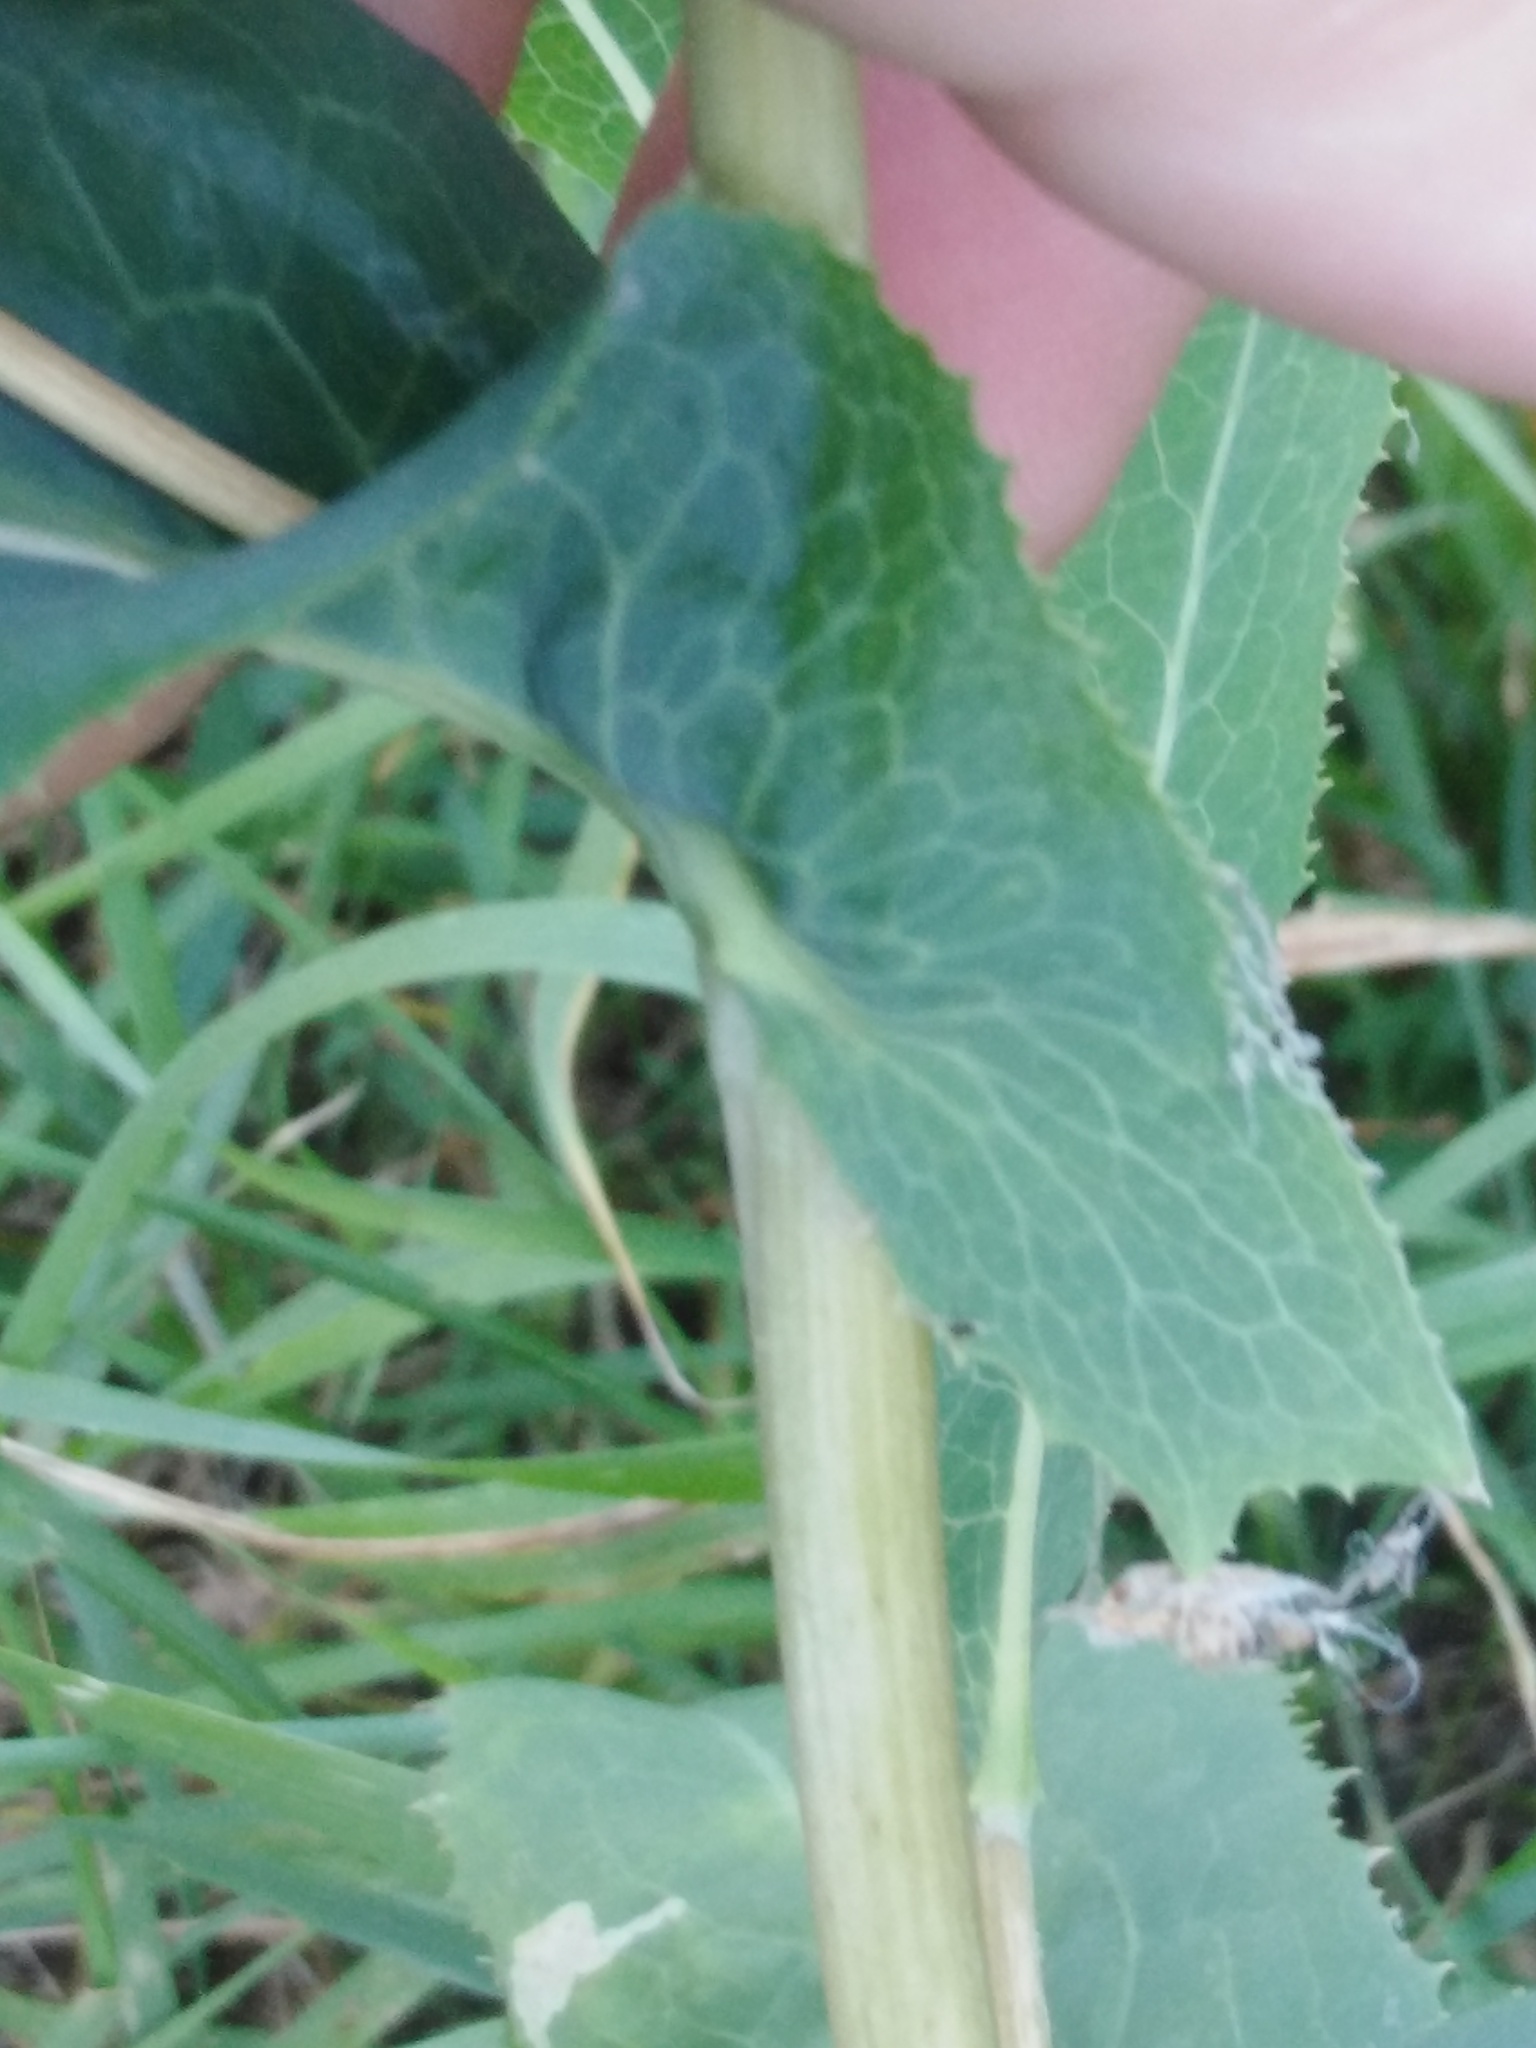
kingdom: Plantae
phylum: Tracheophyta
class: Magnoliopsida
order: Asterales
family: Asteraceae
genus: Lactuca
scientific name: Lactuca serriola
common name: Prickly lettuce
